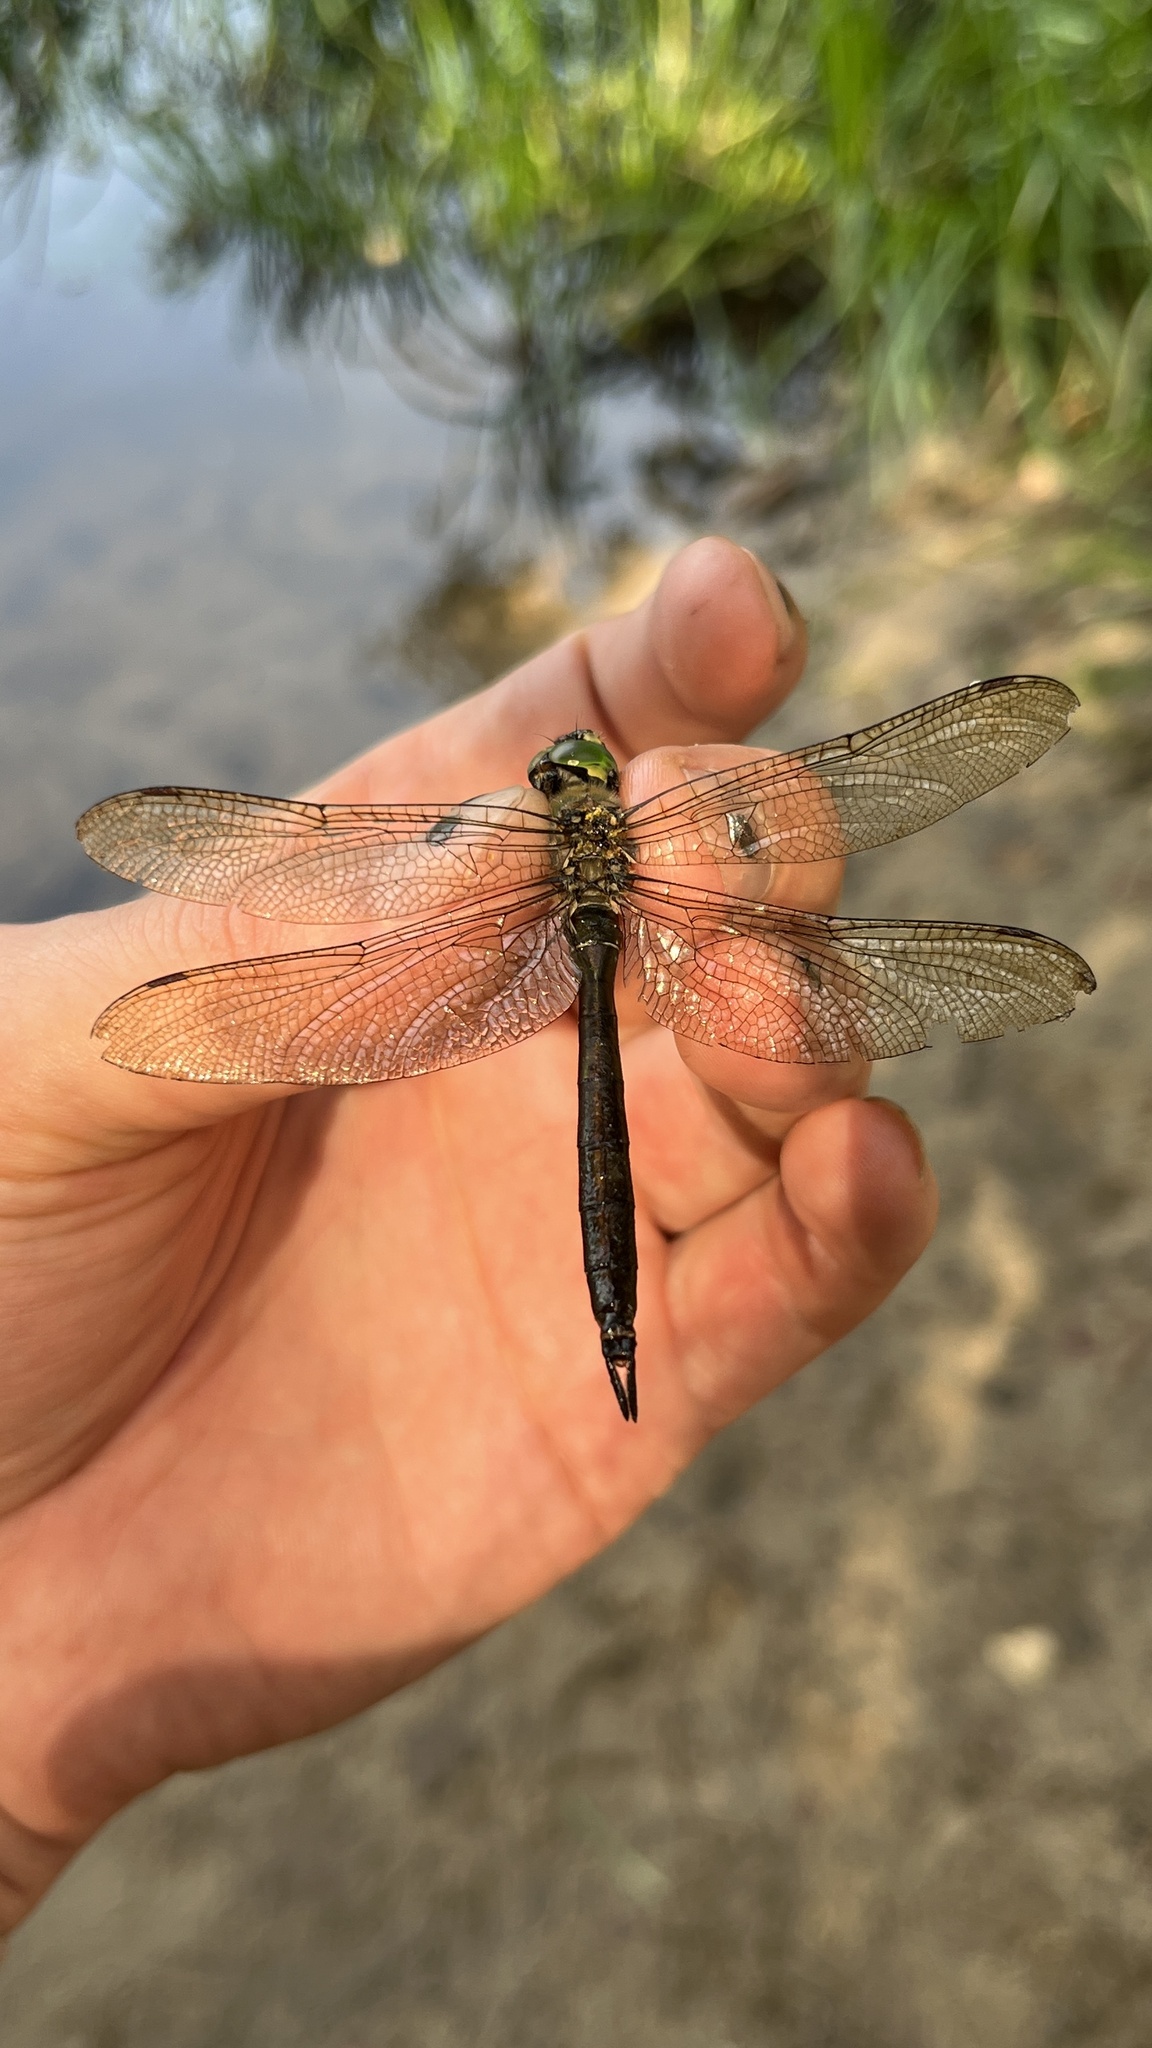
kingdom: Animalia
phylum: Arthropoda
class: Insecta
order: Odonata
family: Corduliidae
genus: Somatochlora
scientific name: Somatochlora metallica
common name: Brilliant emerald
